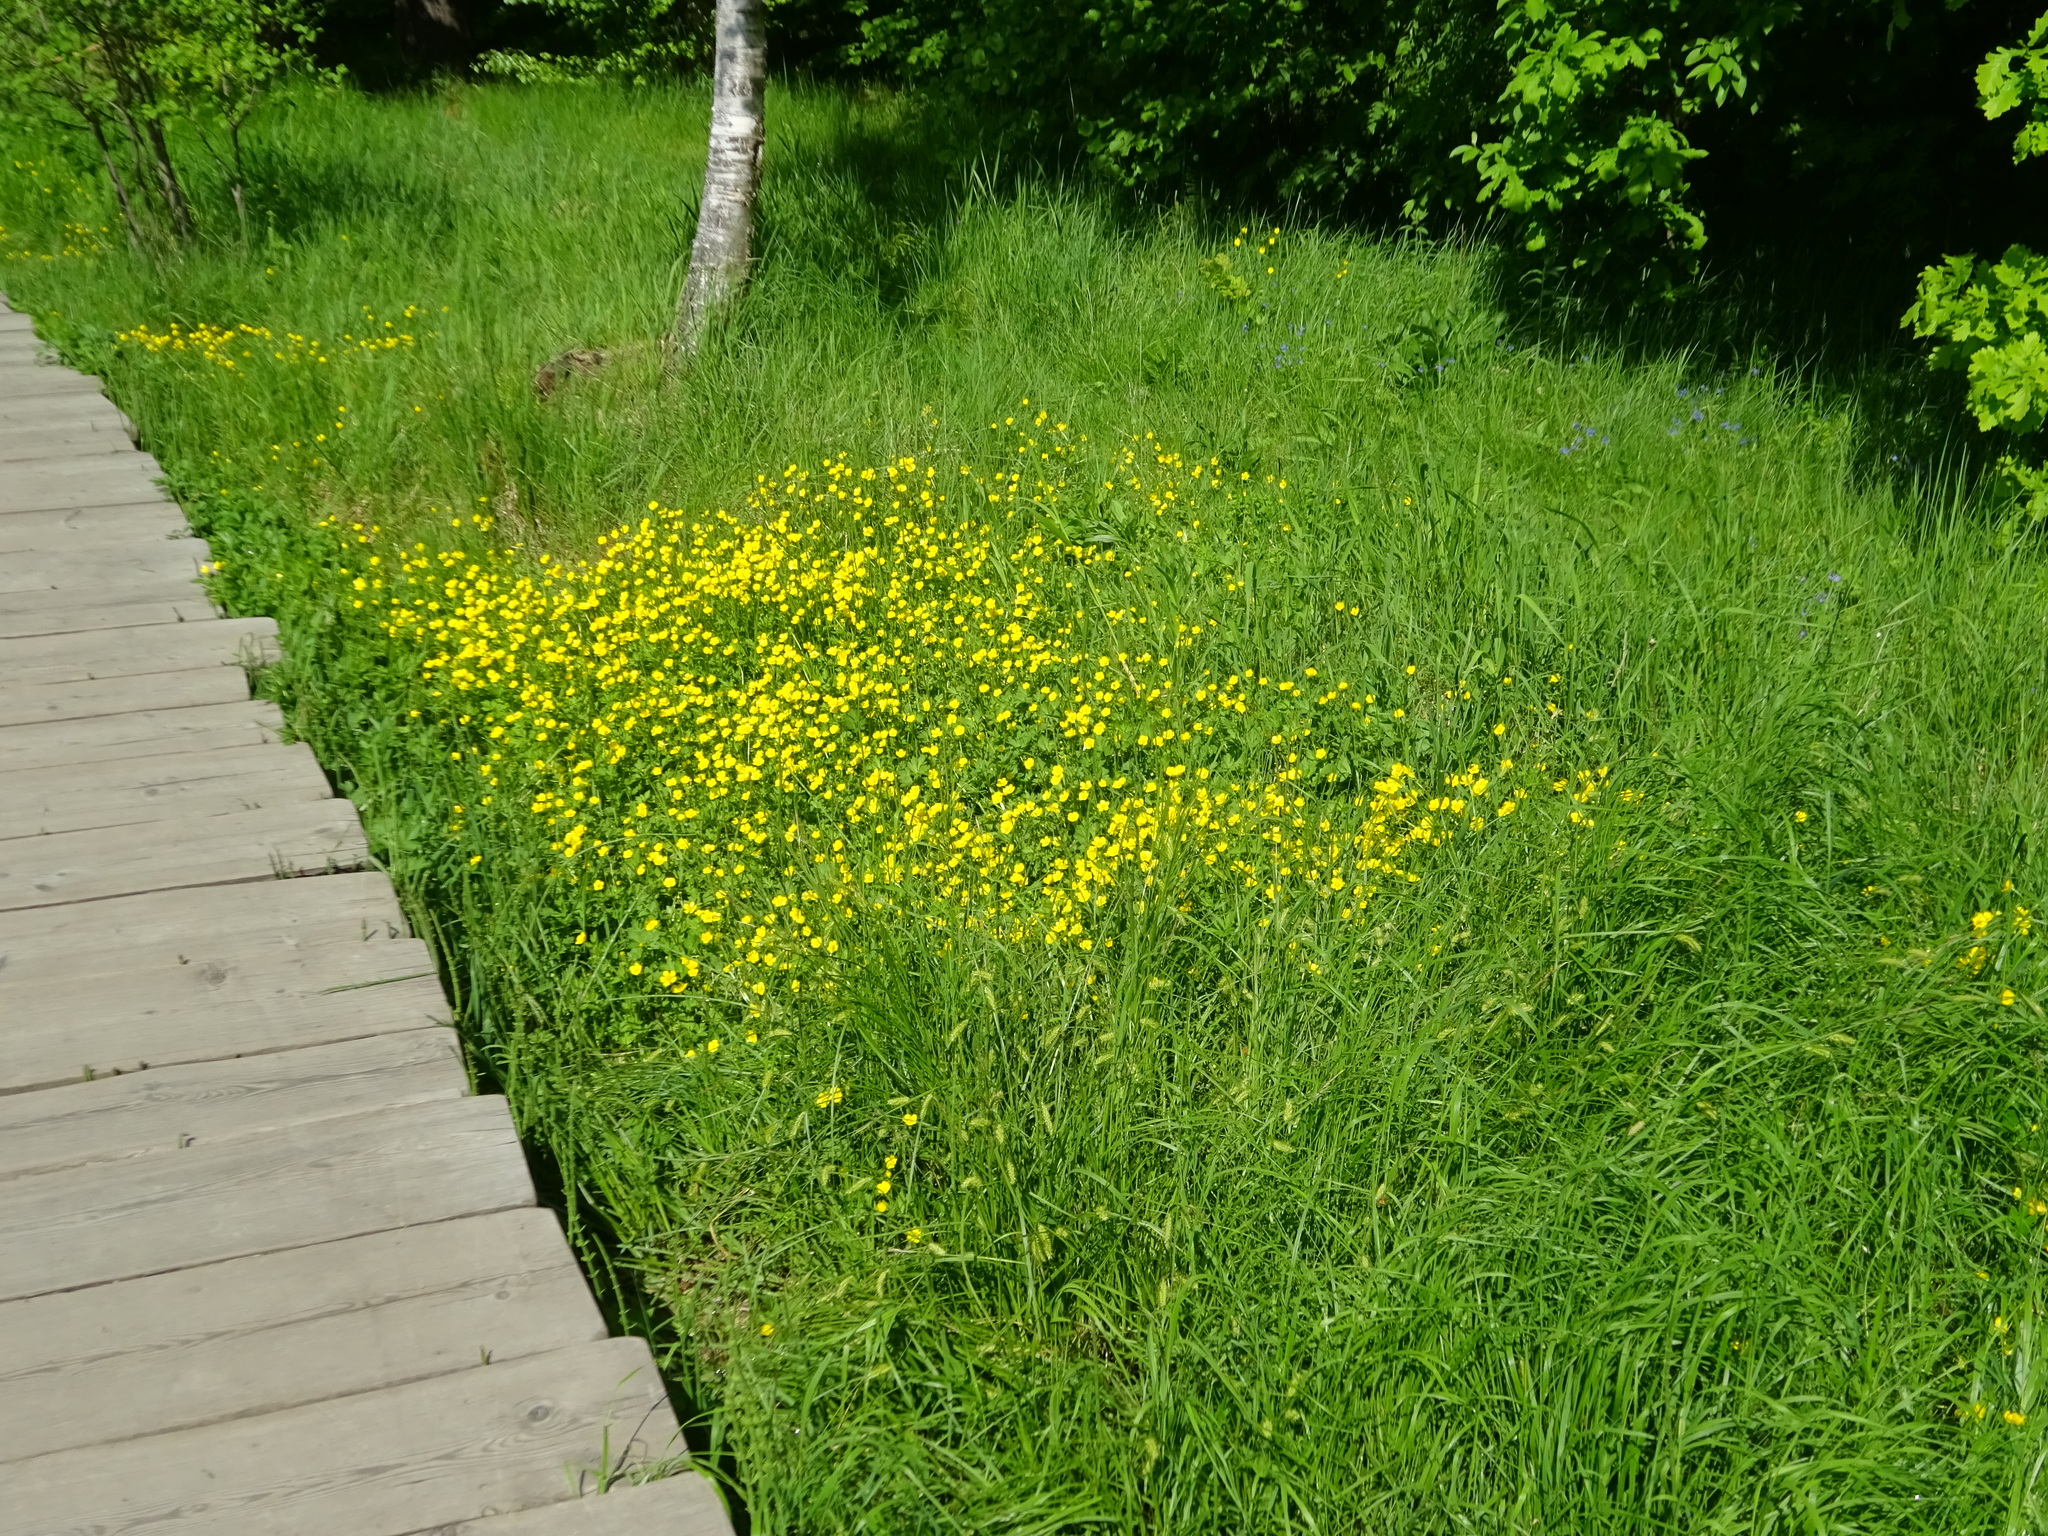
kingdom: Plantae
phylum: Tracheophyta
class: Magnoliopsida
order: Ranunculales
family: Ranunculaceae
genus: Ranunculus
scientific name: Ranunculus repens
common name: Creeping buttercup
